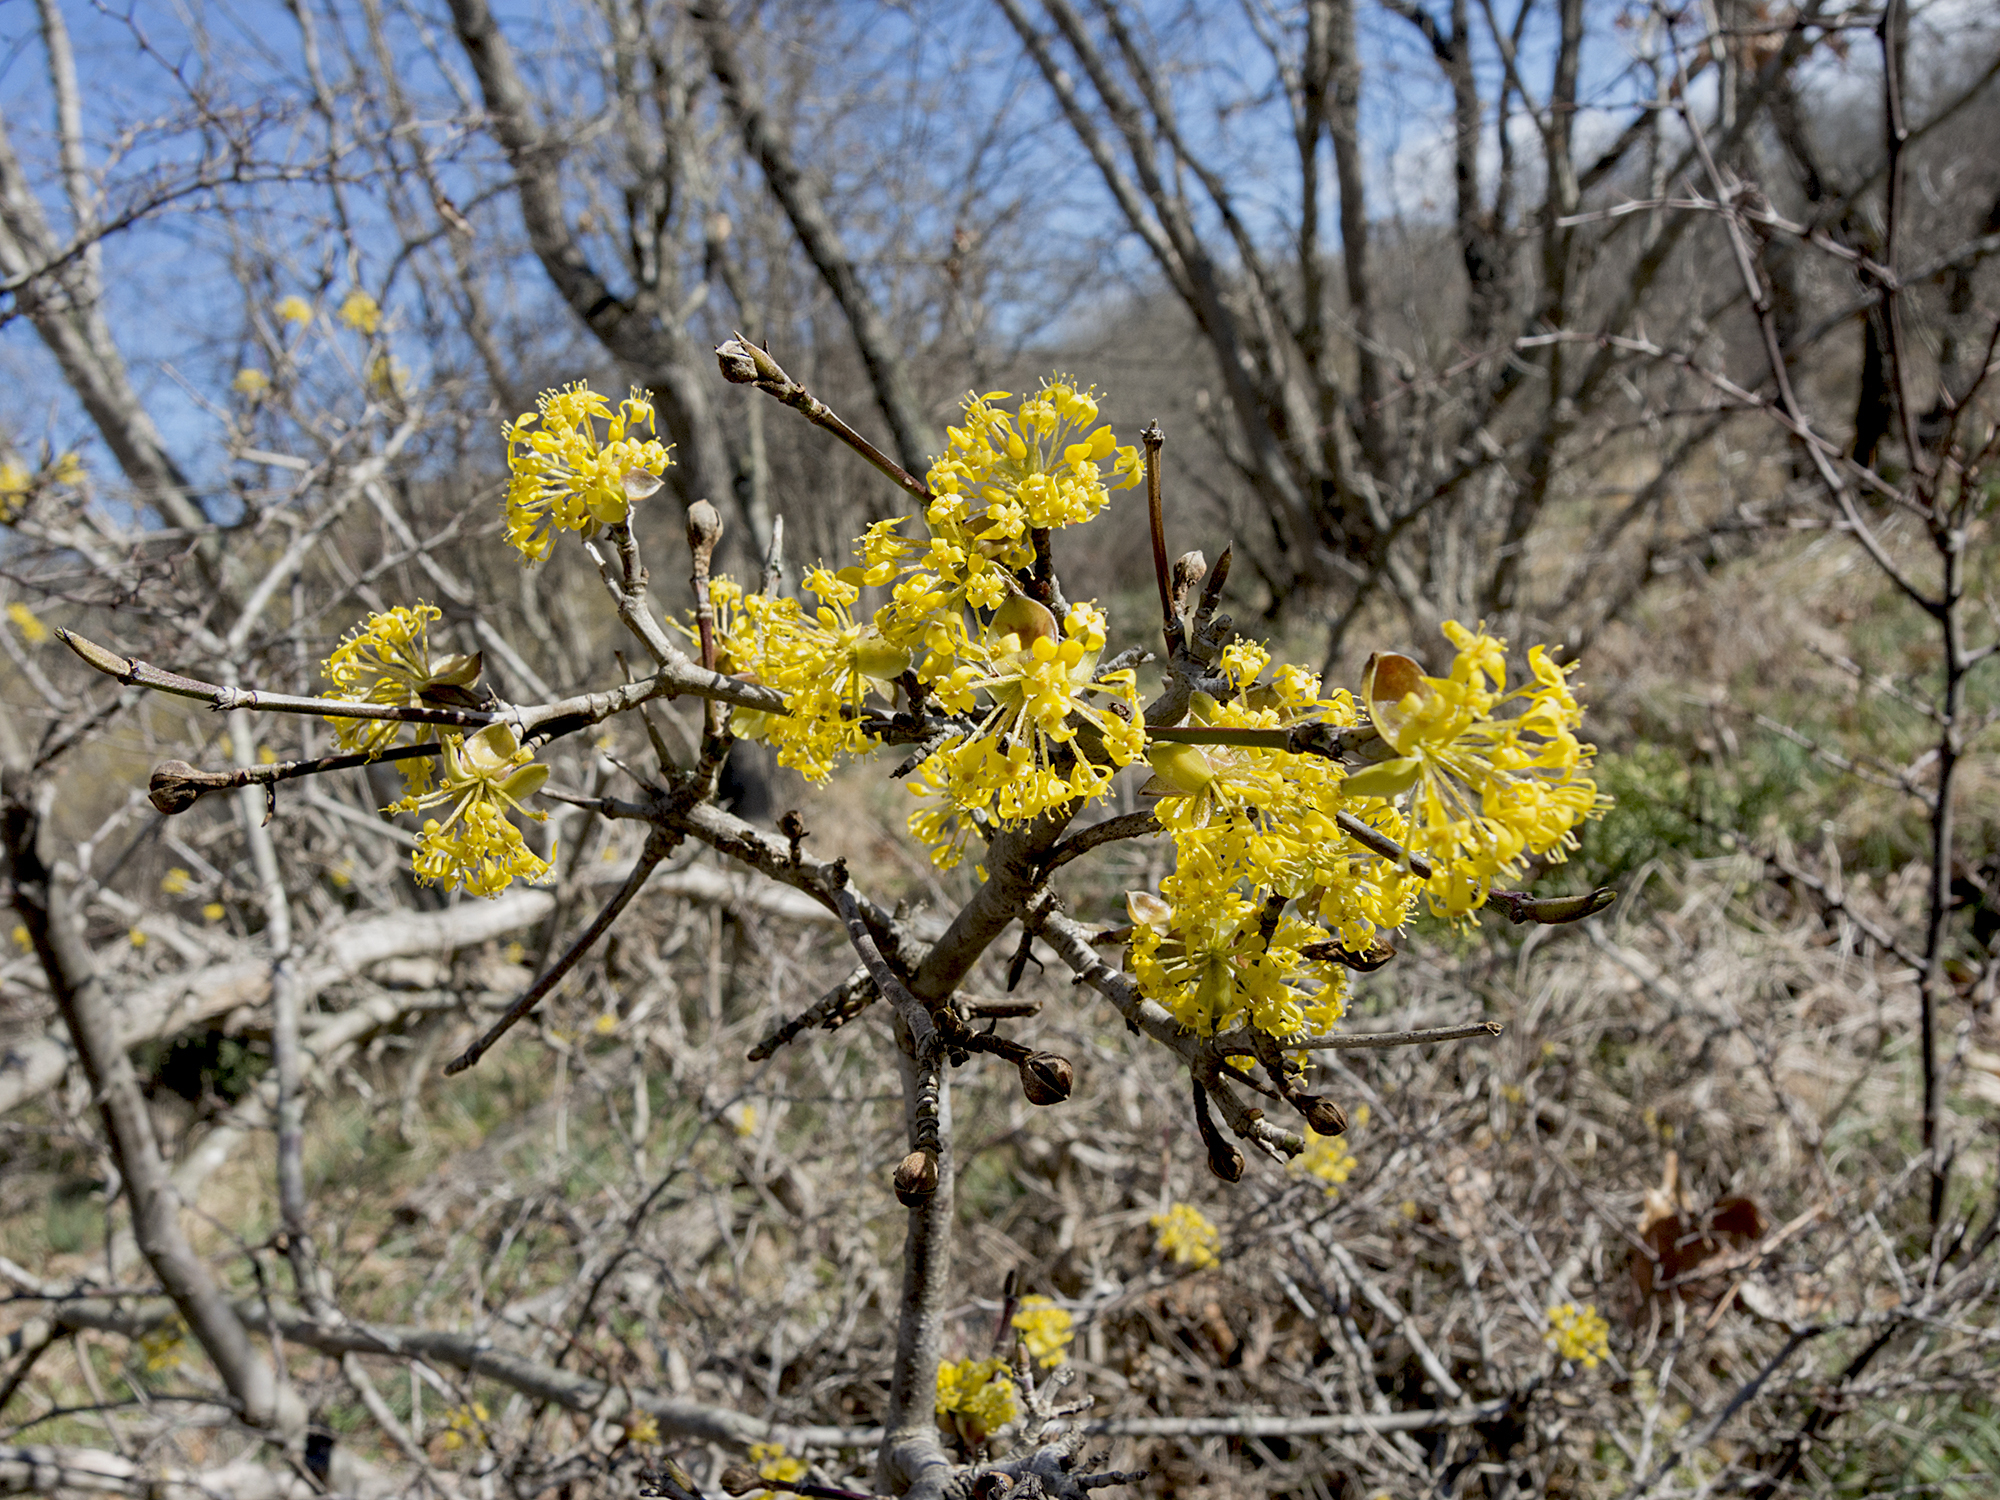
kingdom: Plantae
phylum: Tracheophyta
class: Magnoliopsida
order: Cornales
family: Cornaceae
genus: Cornus
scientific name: Cornus mas
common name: Cornelian-cherry
